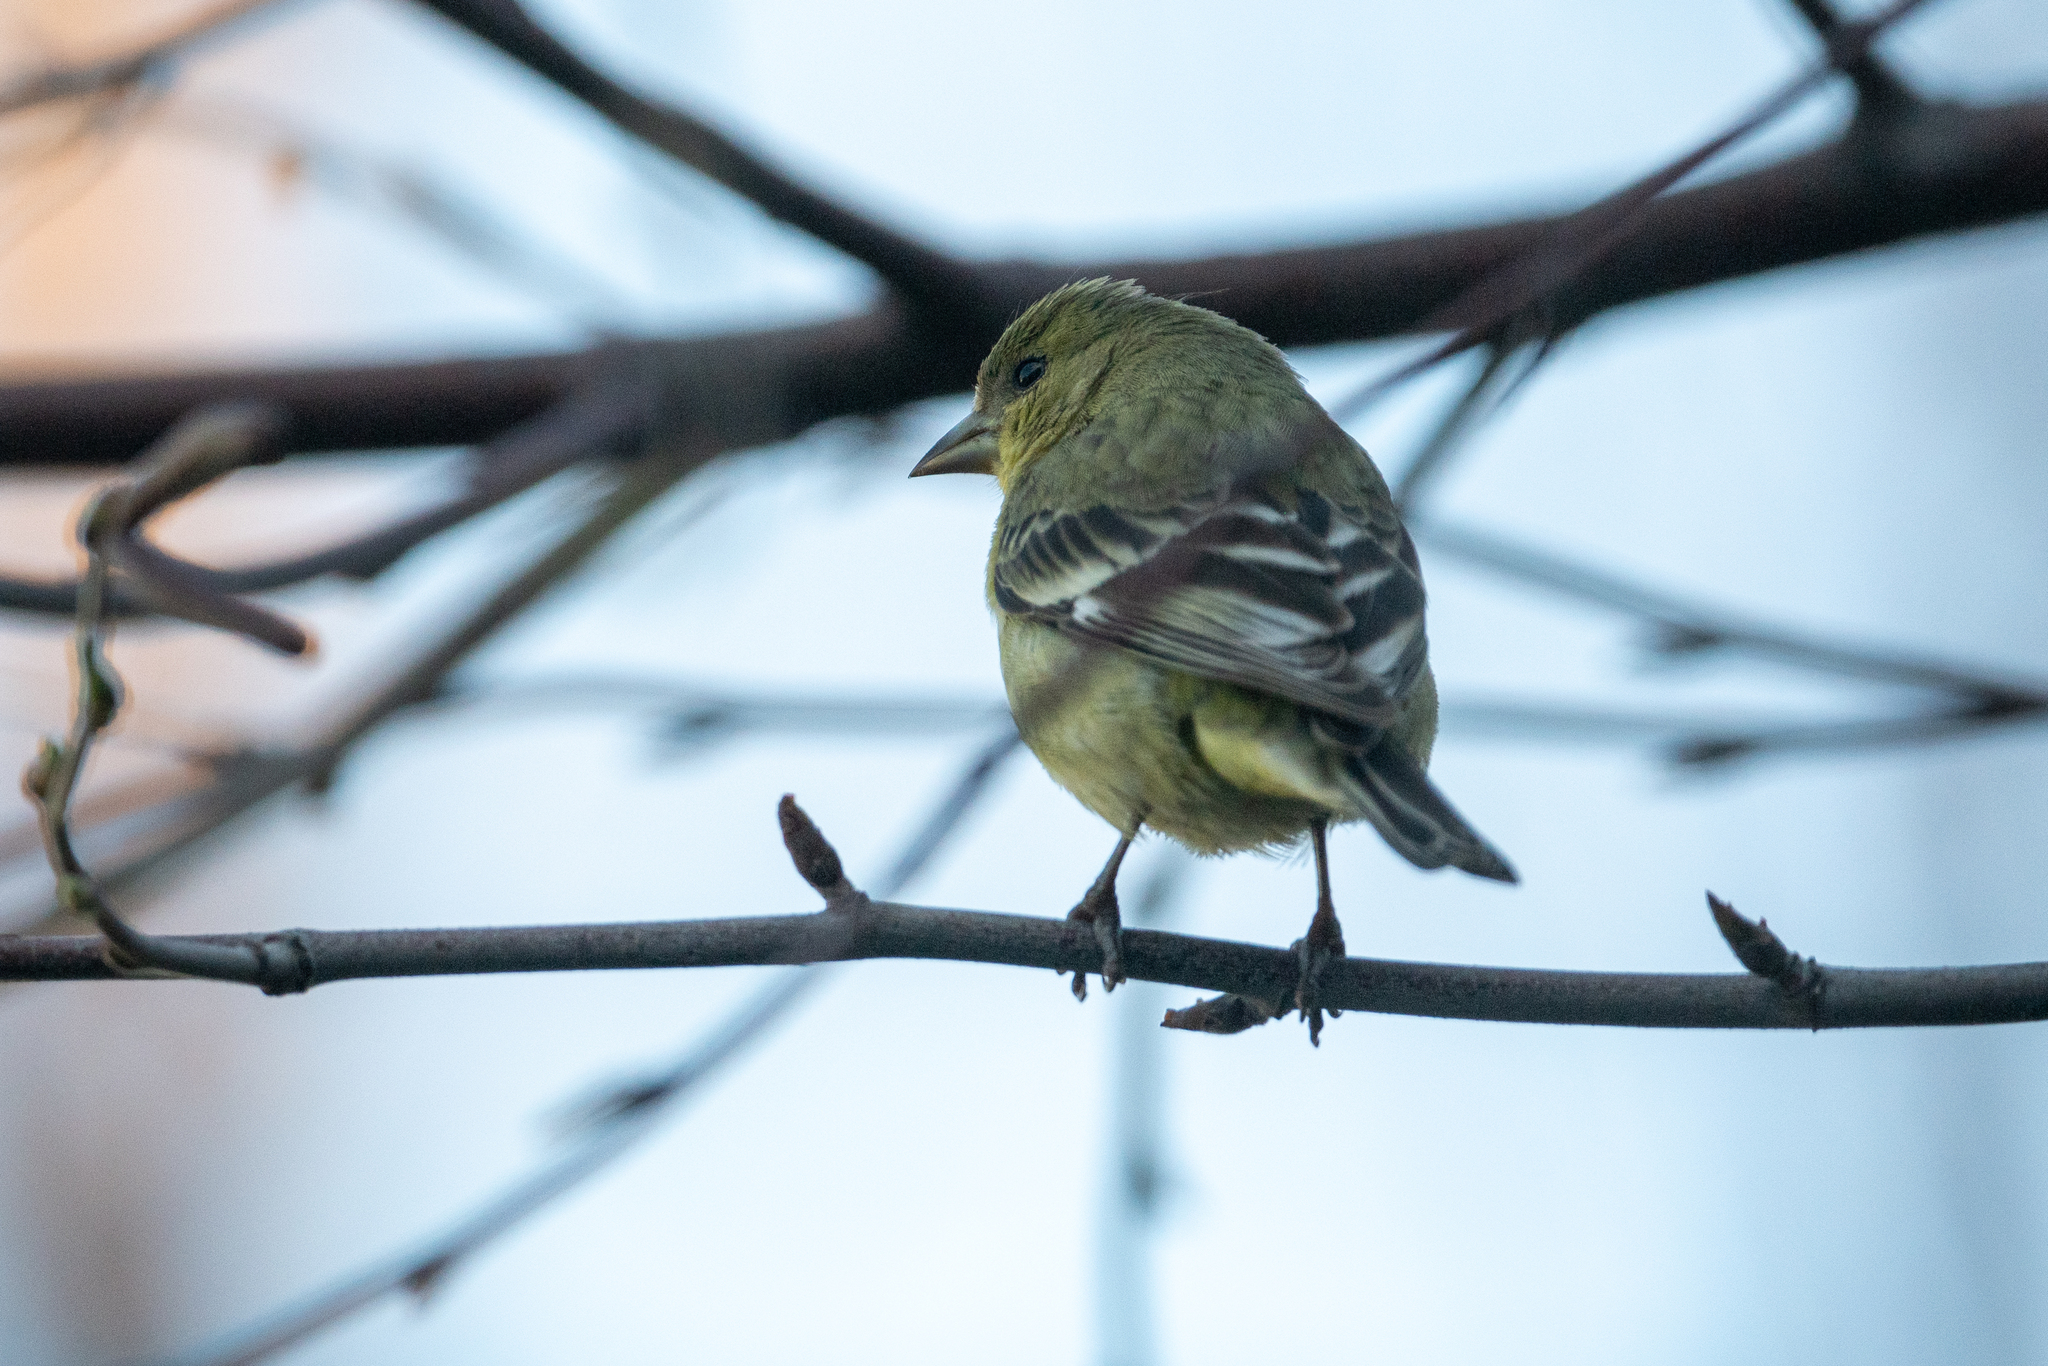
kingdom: Animalia
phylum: Chordata
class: Aves
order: Passeriformes
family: Fringillidae
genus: Spinus
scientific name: Spinus psaltria
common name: Lesser goldfinch
